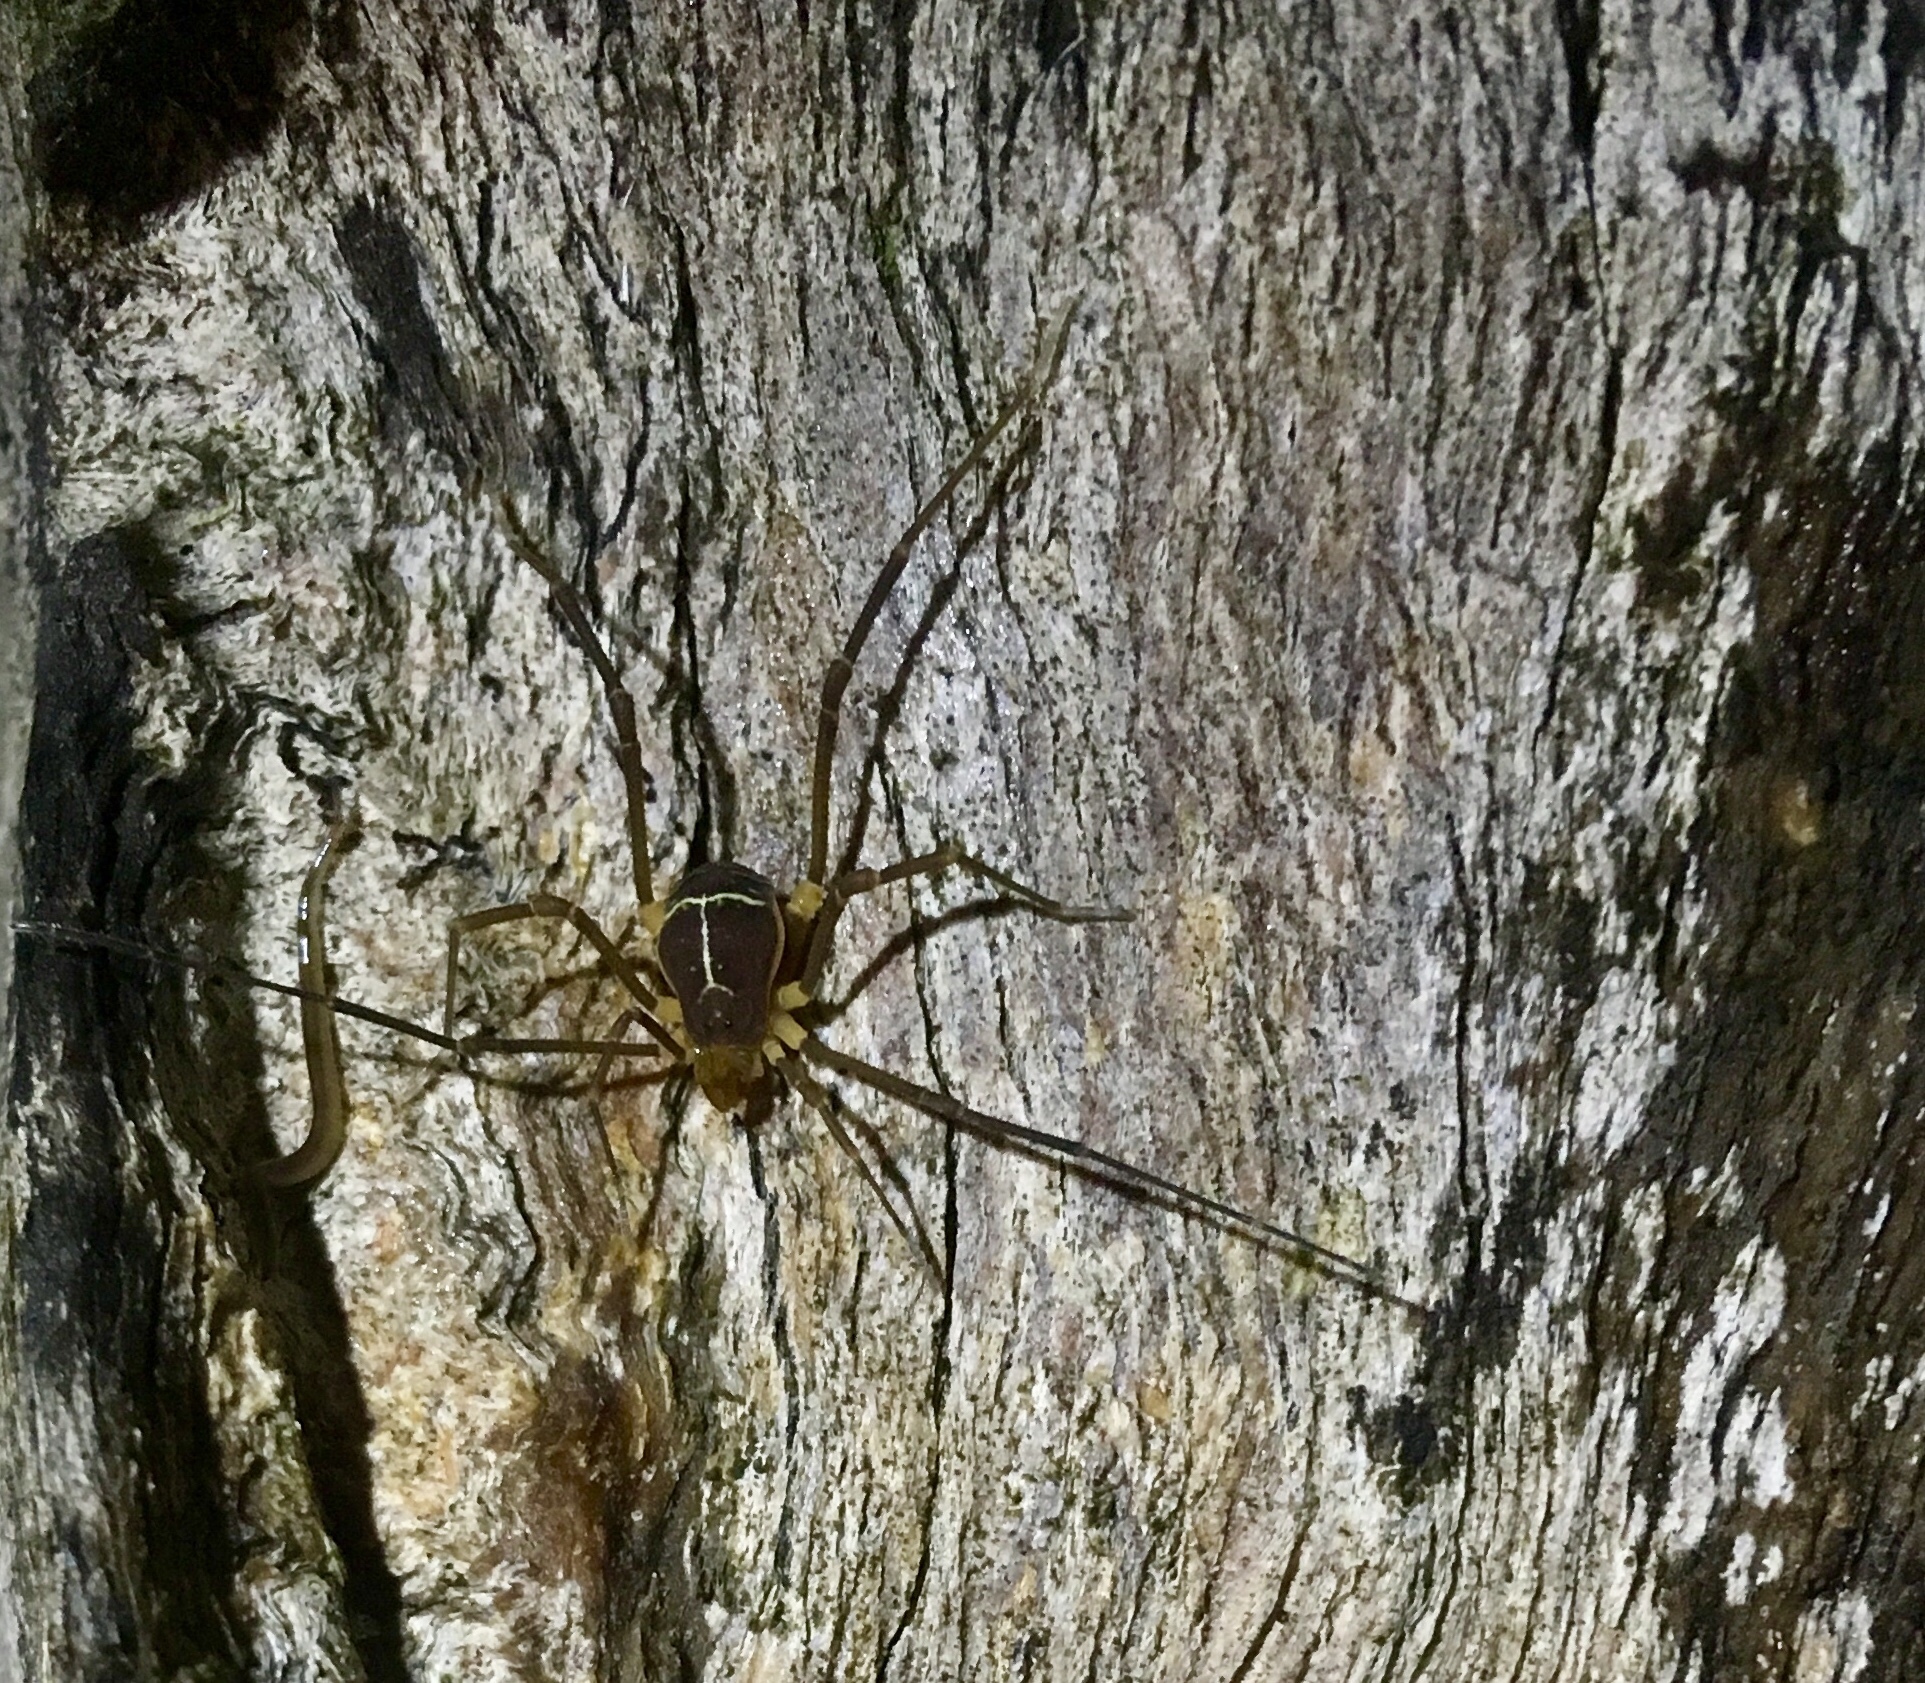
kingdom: Animalia
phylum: Arthropoda
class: Arachnida
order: Opiliones
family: Cosmetidae
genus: Cynortula
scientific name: Cynortula zaca
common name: Harvestmen
